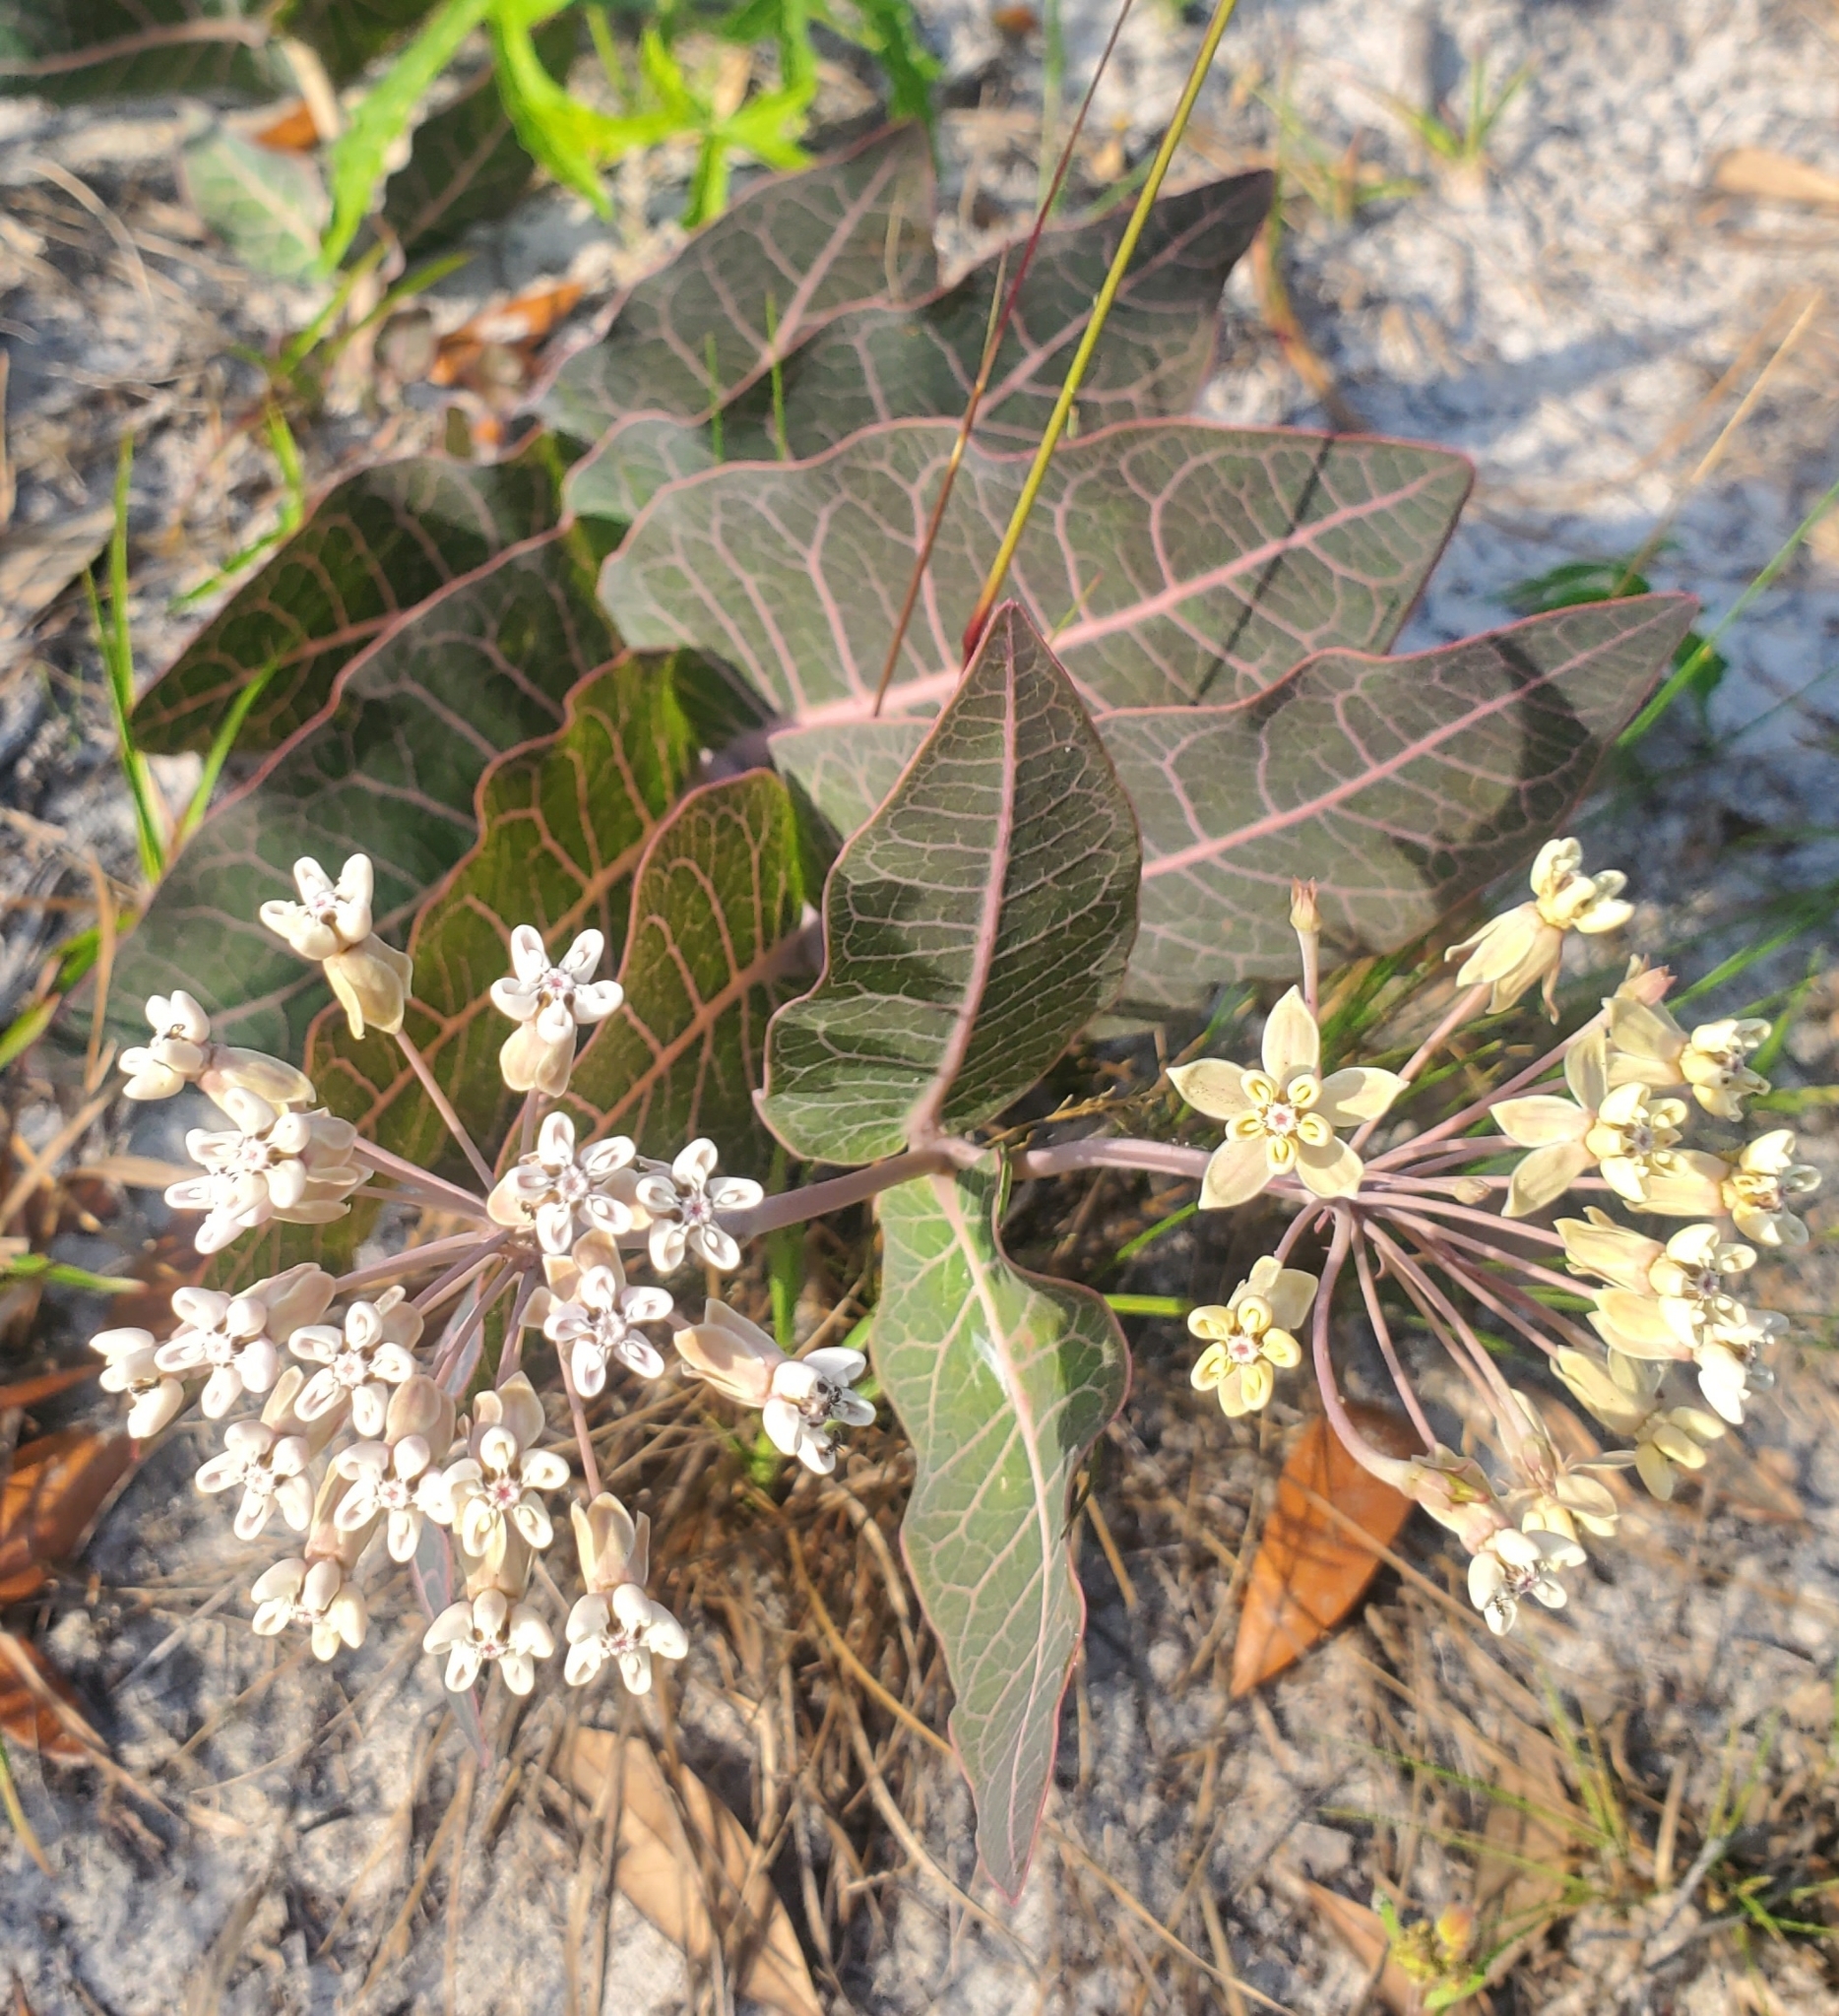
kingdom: Plantae
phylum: Tracheophyta
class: Magnoliopsida
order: Gentianales
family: Apocynaceae
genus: Asclepias
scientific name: Asclepias humistrata
